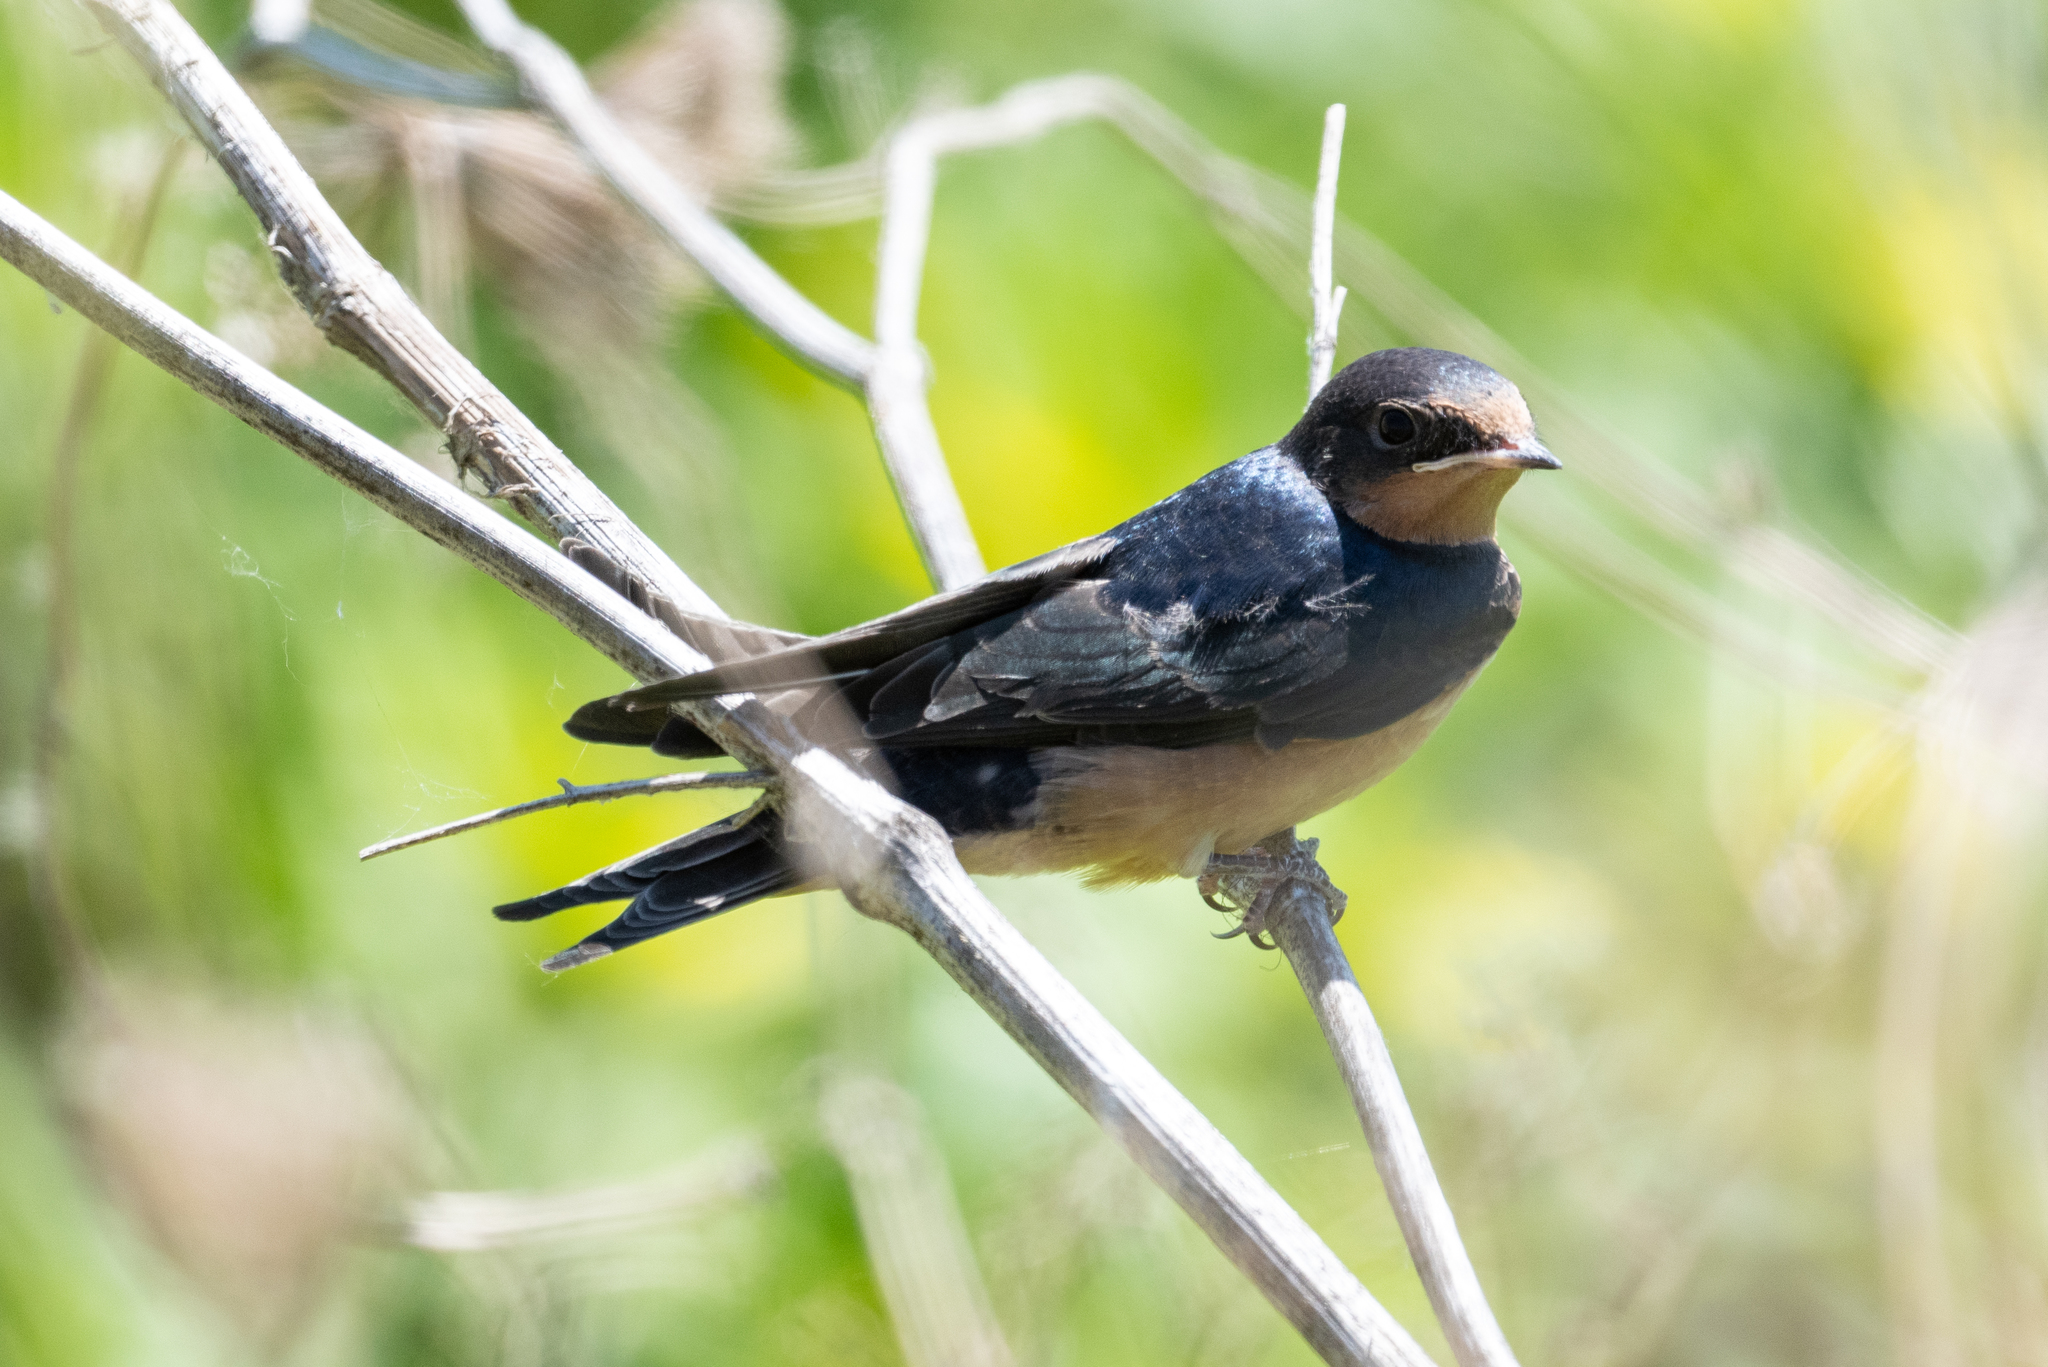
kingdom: Animalia
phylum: Chordata
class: Aves
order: Passeriformes
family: Hirundinidae
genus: Hirundo
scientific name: Hirundo rustica
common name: Barn swallow
